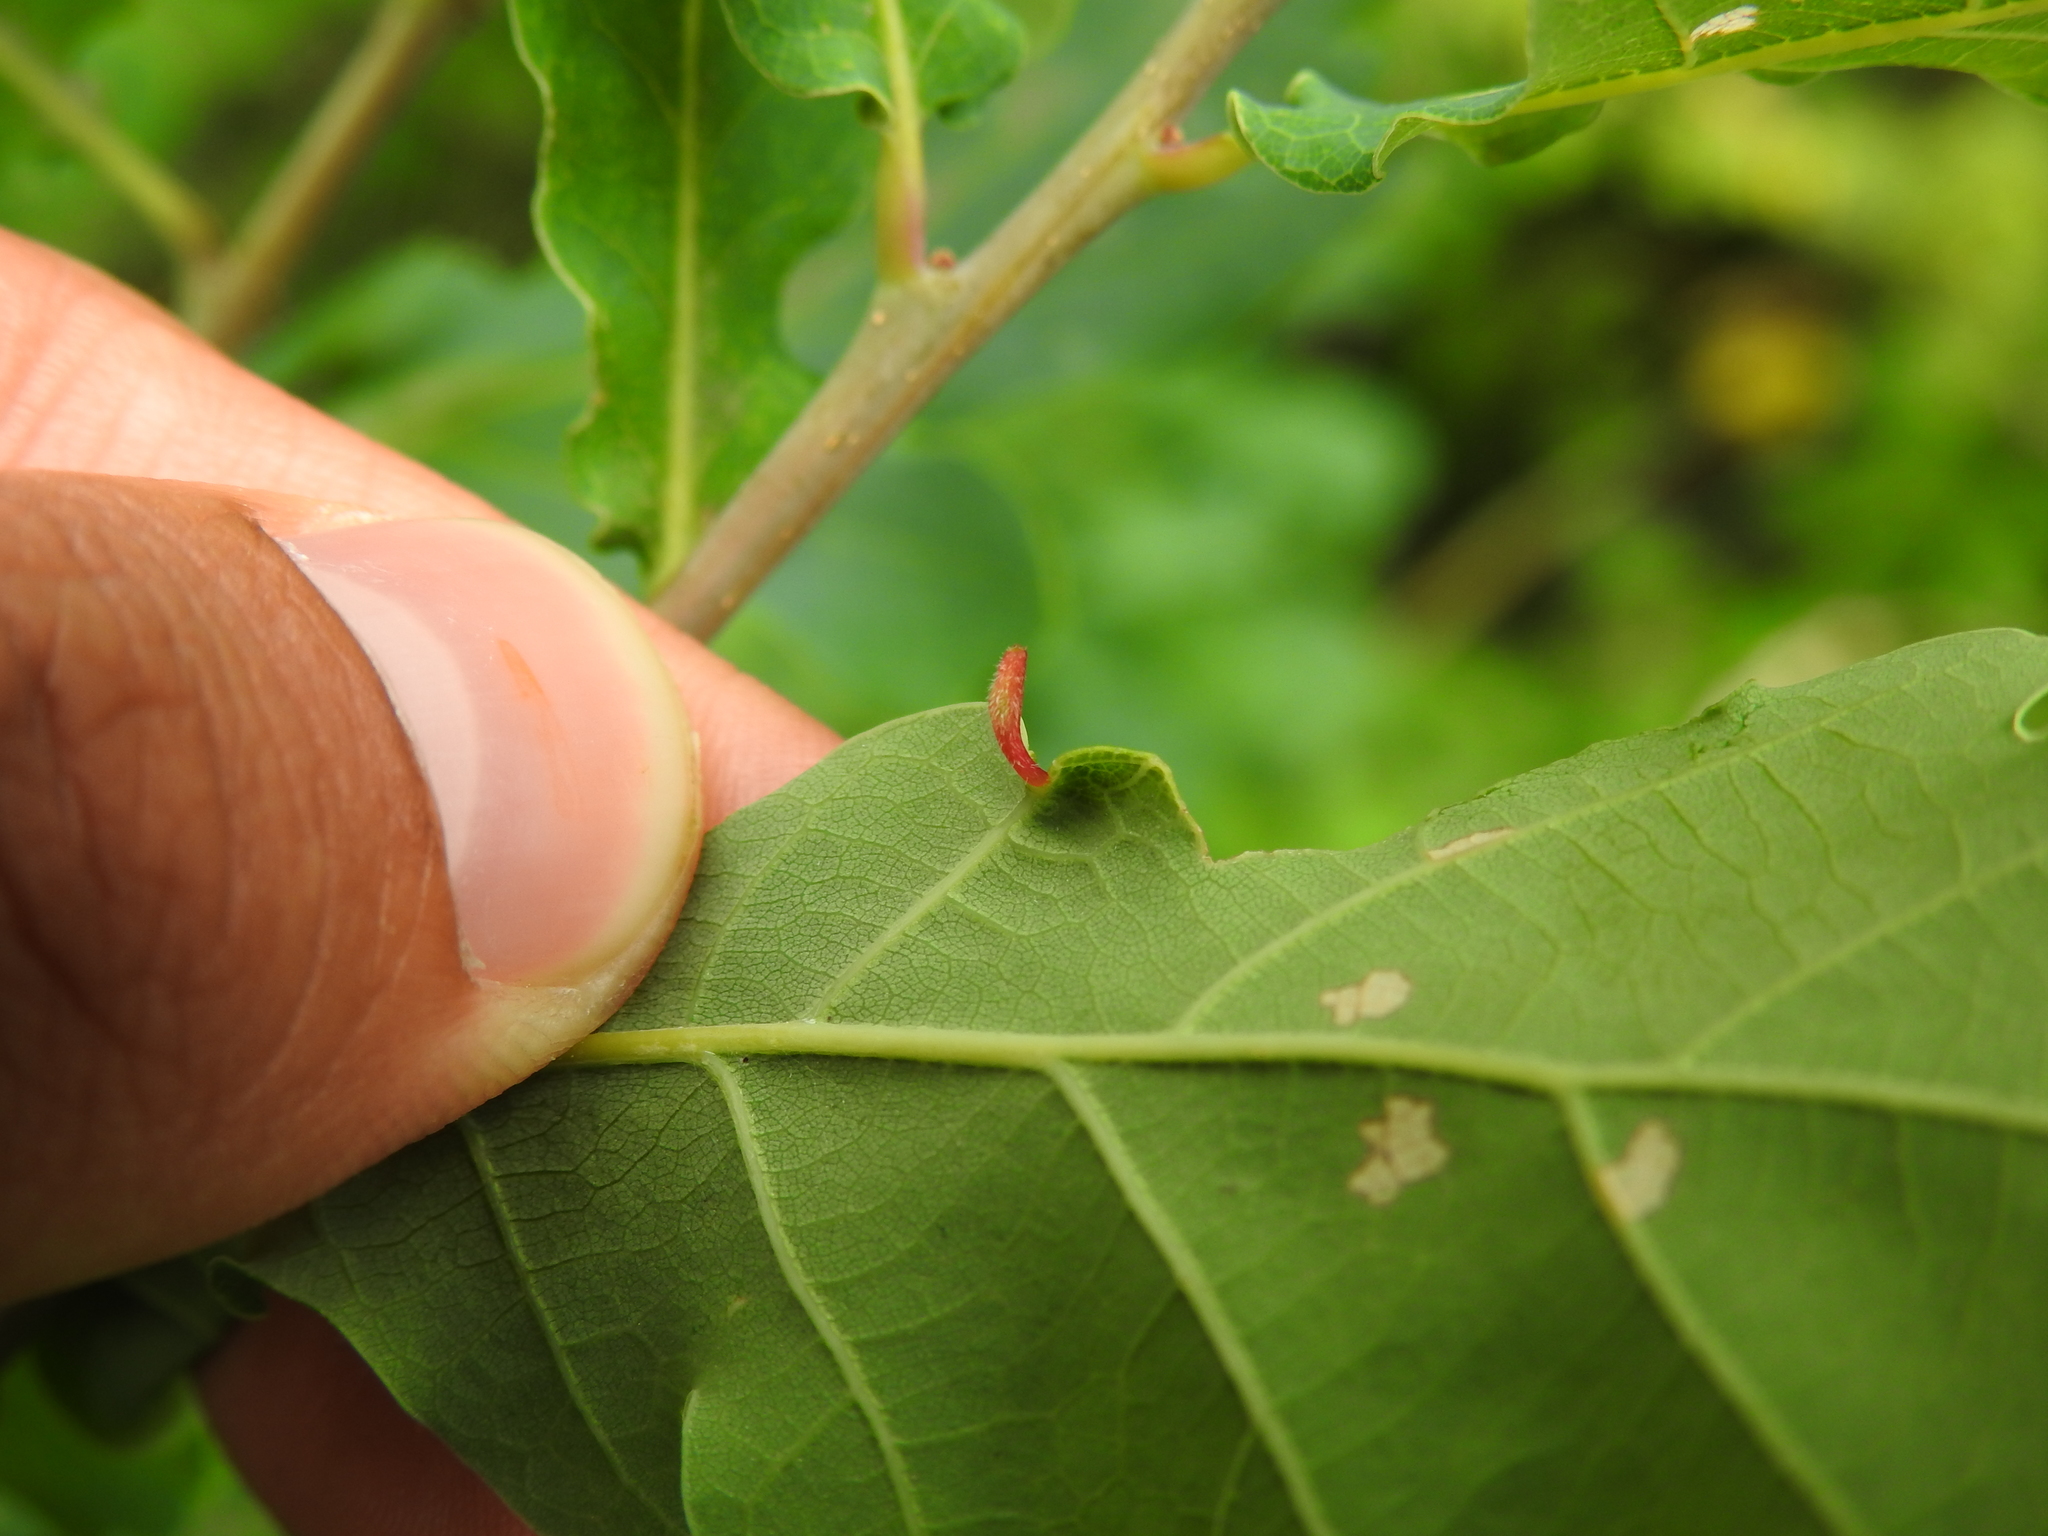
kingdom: Animalia
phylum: Arthropoda
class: Insecta
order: Hymenoptera
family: Cynipidae
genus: Andricus
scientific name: Andricus seminationis
